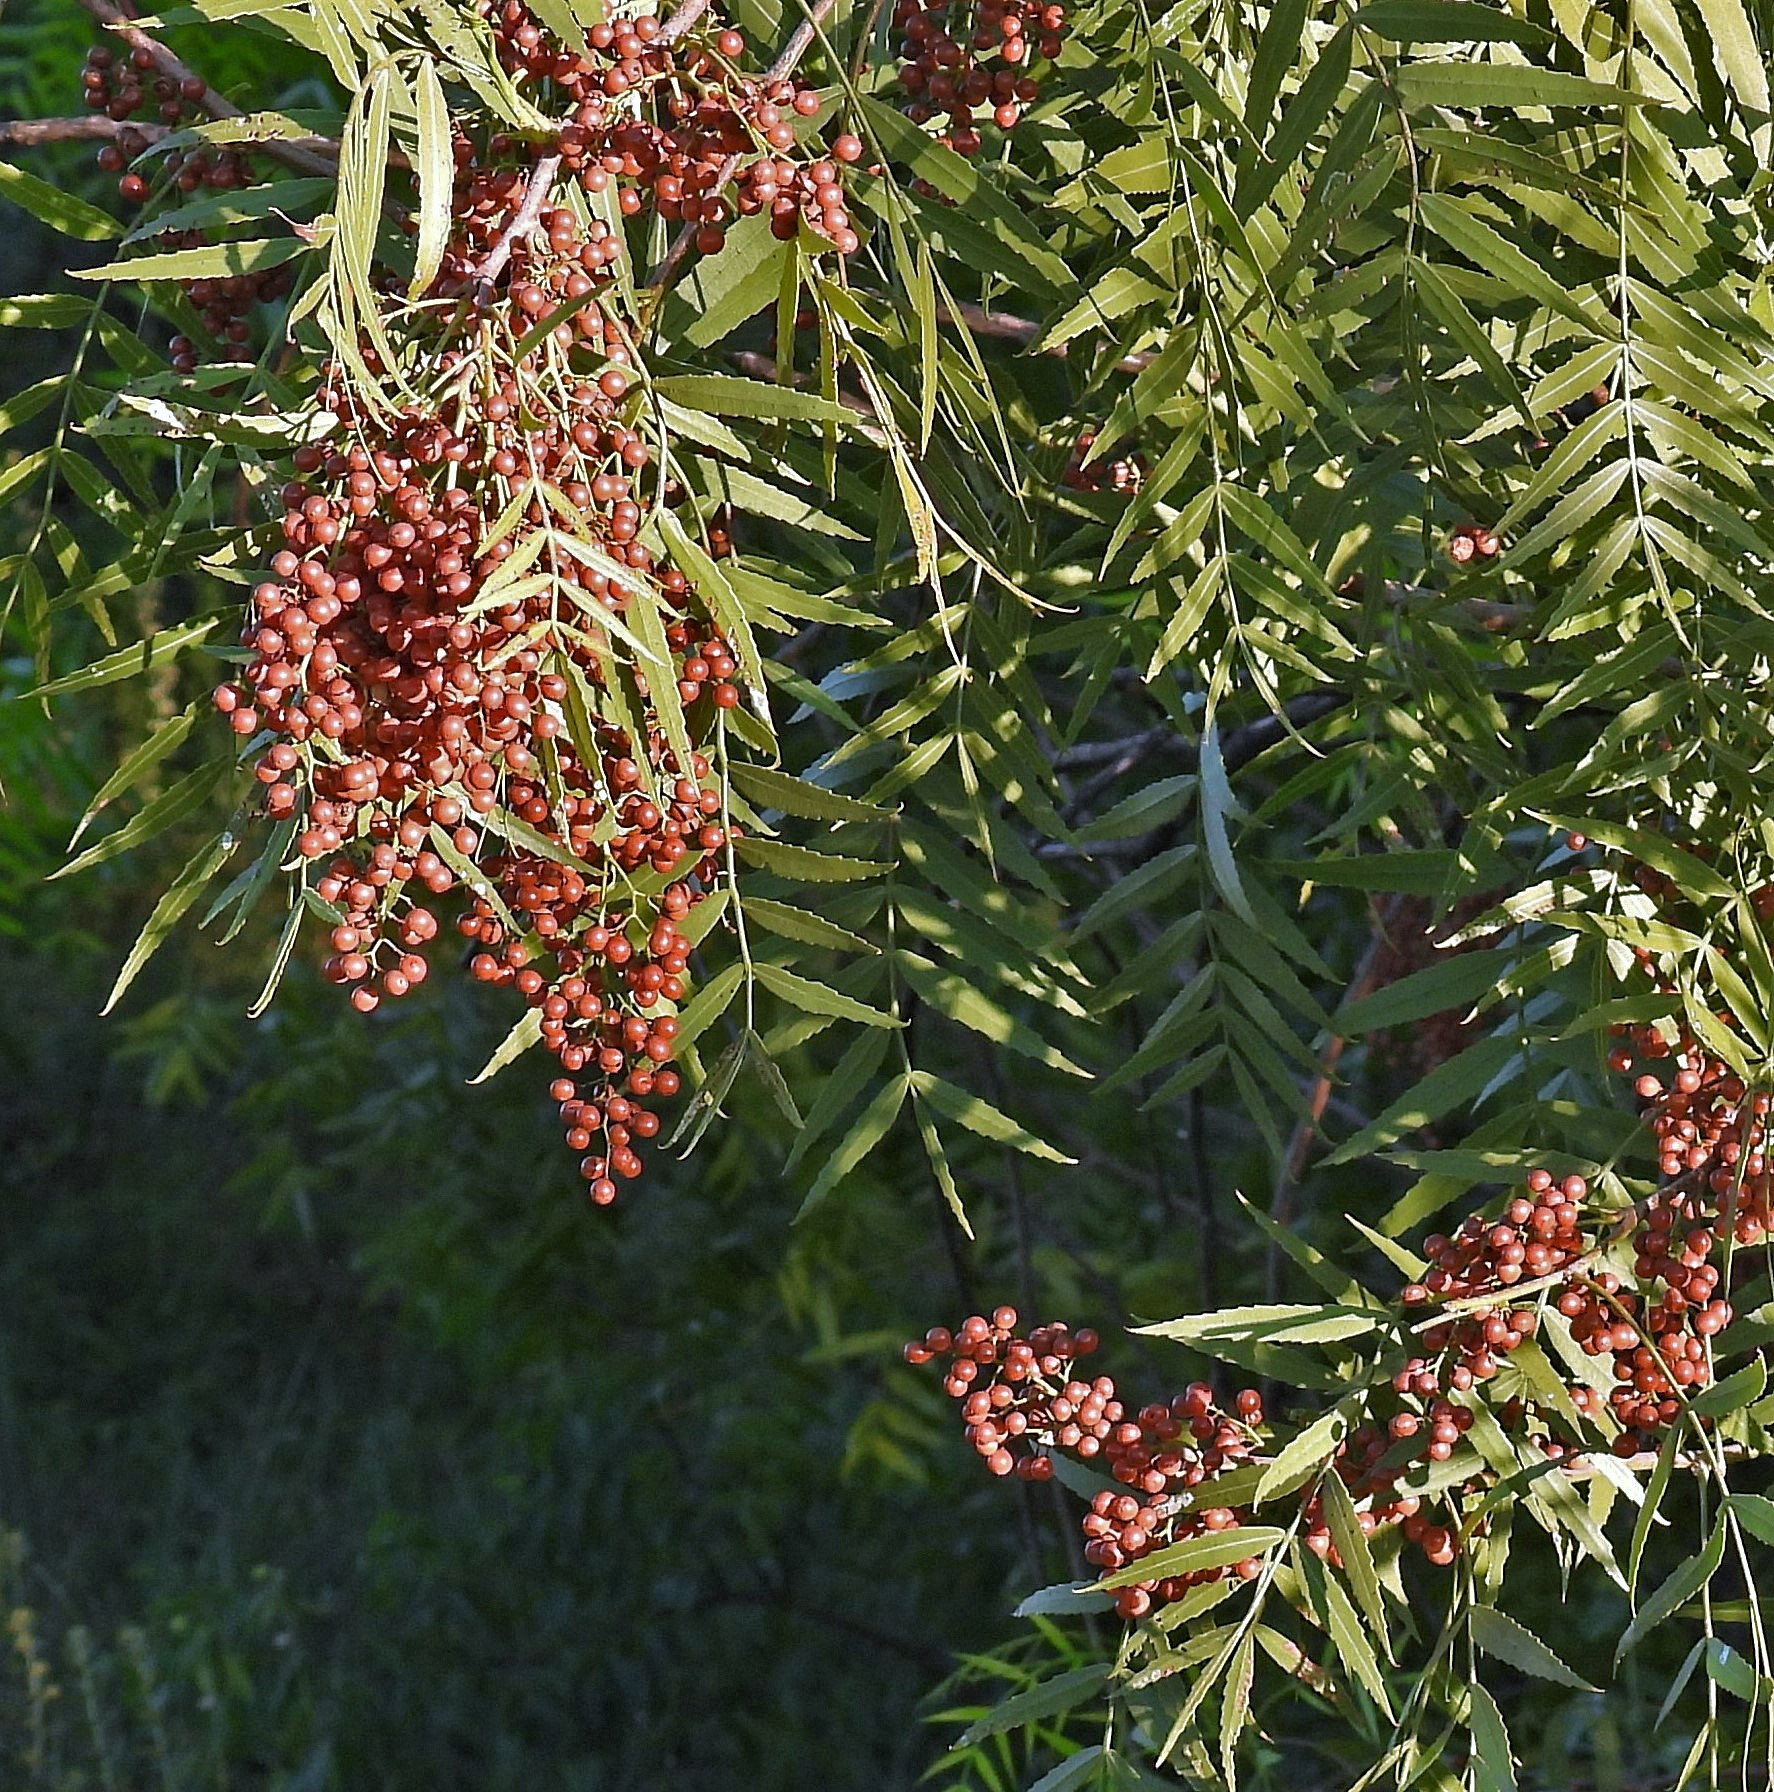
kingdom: Plantae
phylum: Tracheophyta
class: Magnoliopsida
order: Sapindales
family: Anacardiaceae
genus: Schinus
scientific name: Schinus molle
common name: Peruvian peppertree
